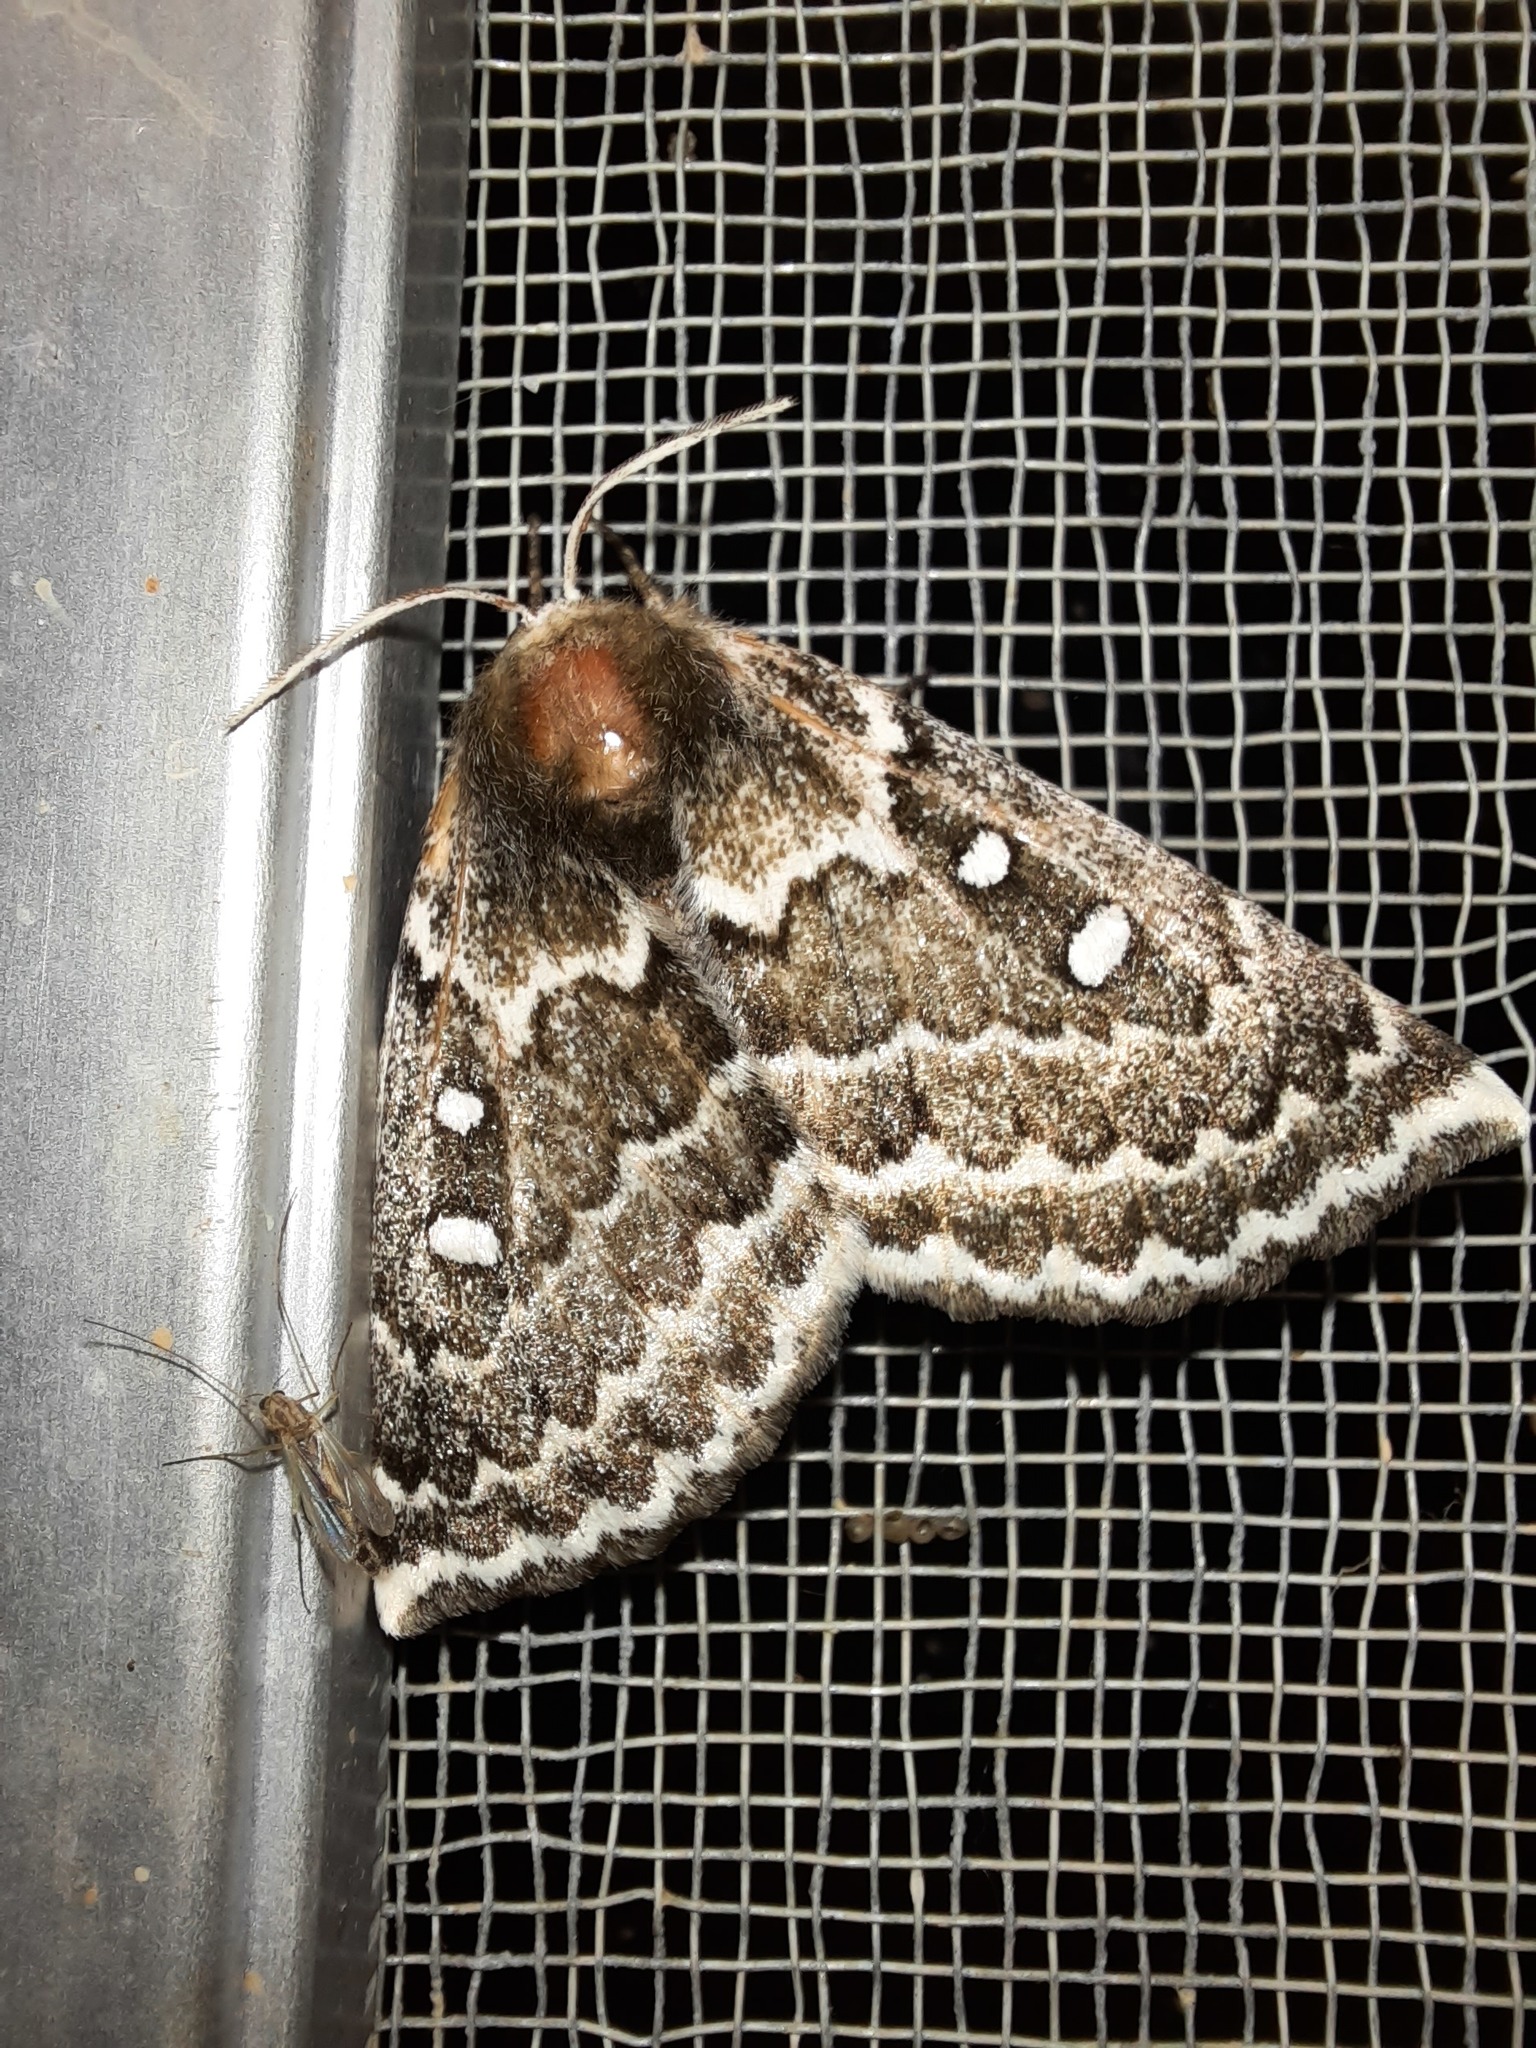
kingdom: Animalia
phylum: Arthropoda
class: Insecta
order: Lepidoptera
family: Anthelidae
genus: Anthela
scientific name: Anthela denticulata
